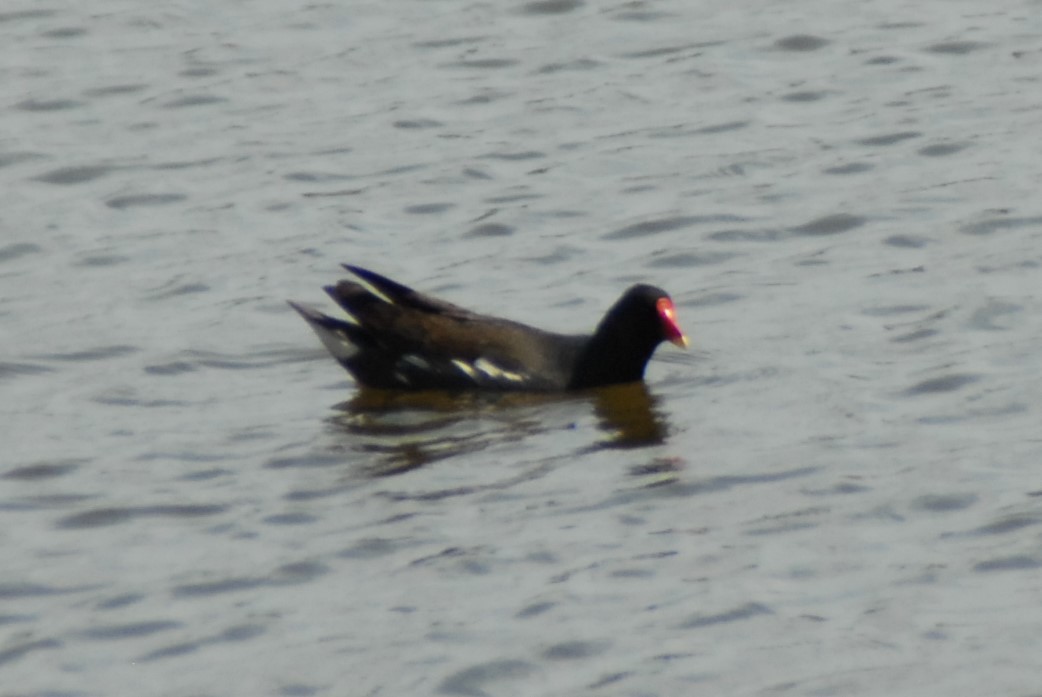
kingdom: Animalia
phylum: Chordata
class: Aves
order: Gruiformes
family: Rallidae
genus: Gallinula
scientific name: Gallinula chloropus
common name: Common moorhen
